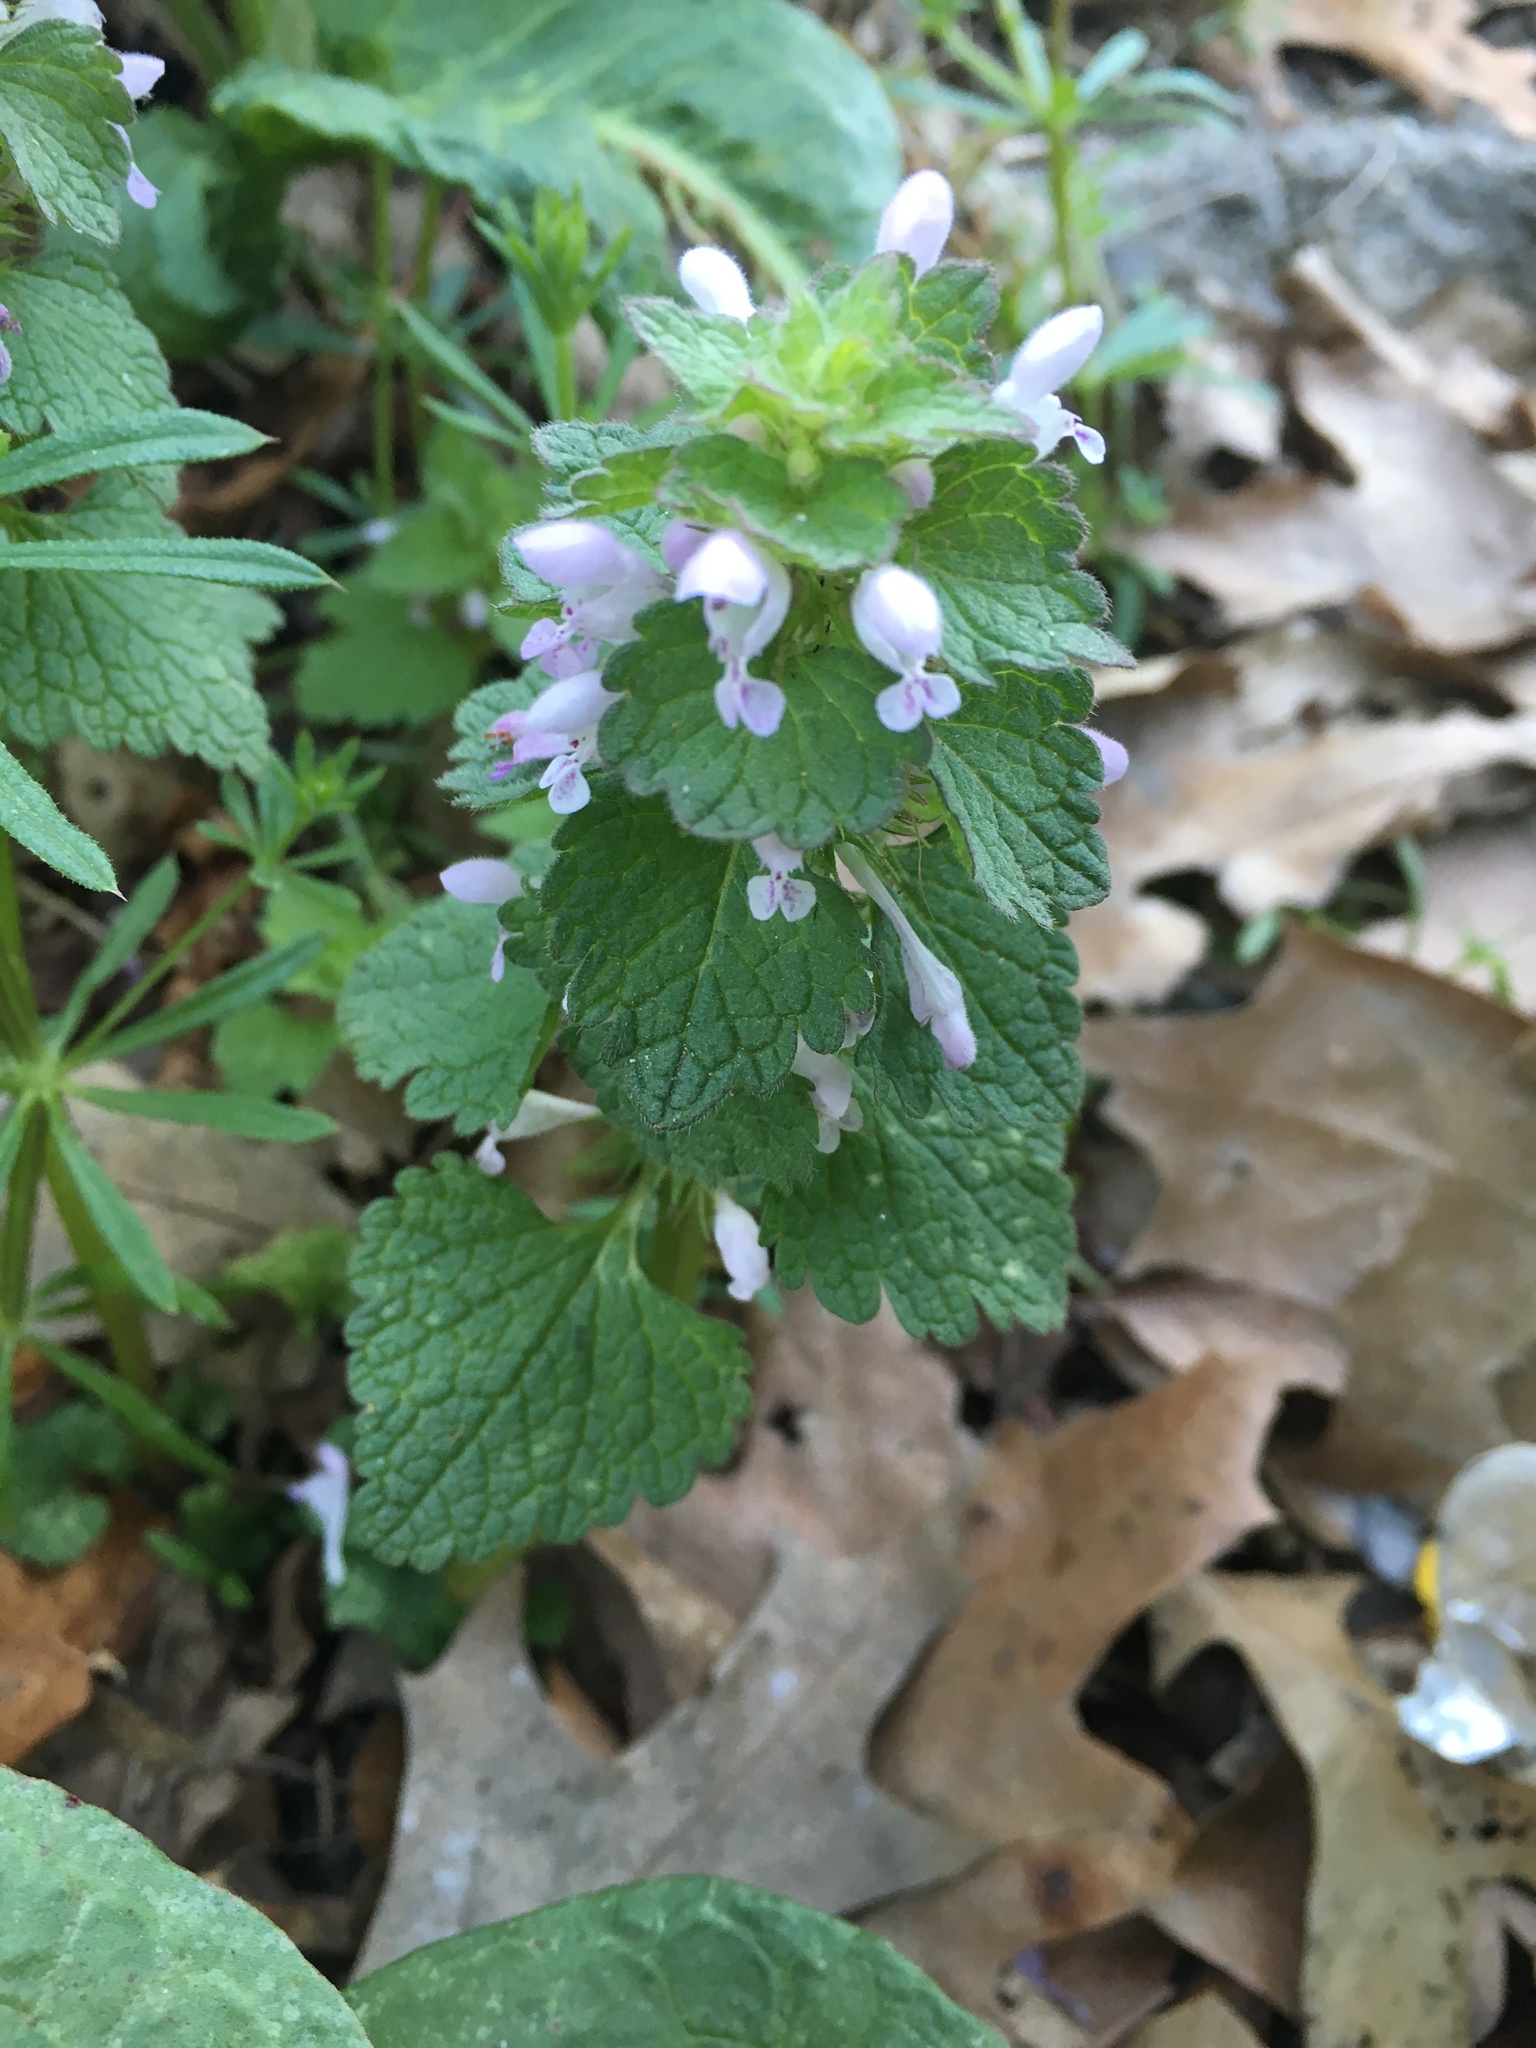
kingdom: Plantae
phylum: Tracheophyta
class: Magnoliopsida
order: Lamiales
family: Lamiaceae
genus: Lamium
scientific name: Lamium purpureum
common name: Red dead-nettle
